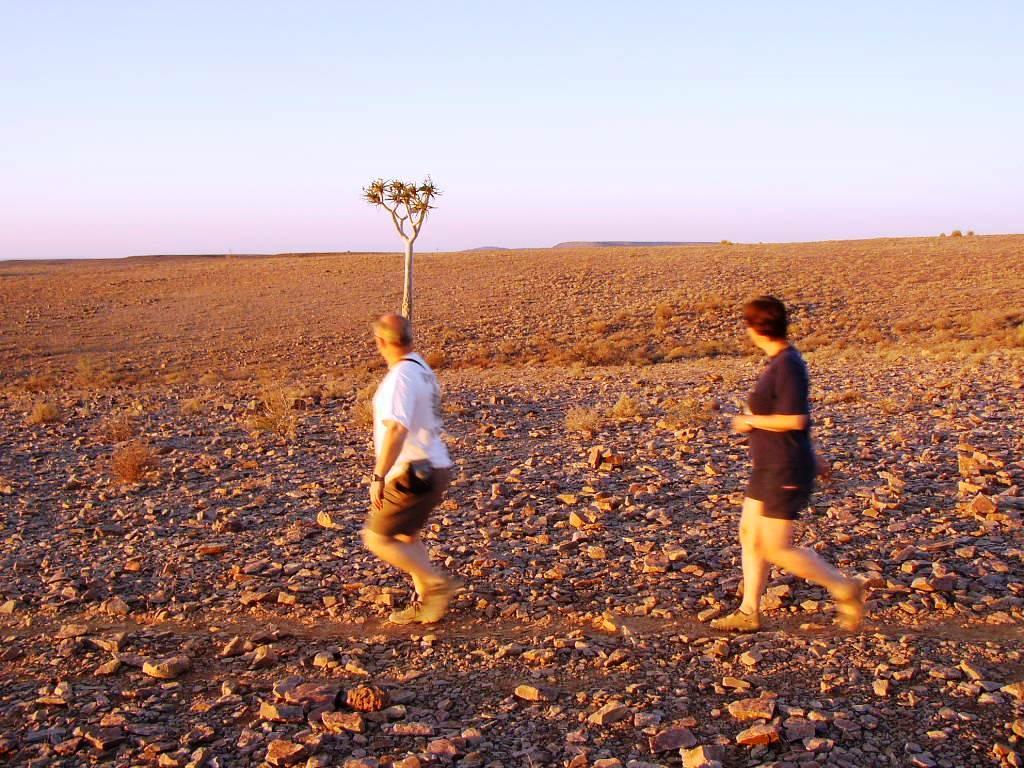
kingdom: Plantae
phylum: Tracheophyta
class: Liliopsida
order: Asparagales
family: Asphodelaceae
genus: Aloidendron
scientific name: Aloidendron dichotomum
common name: Quiver tree
